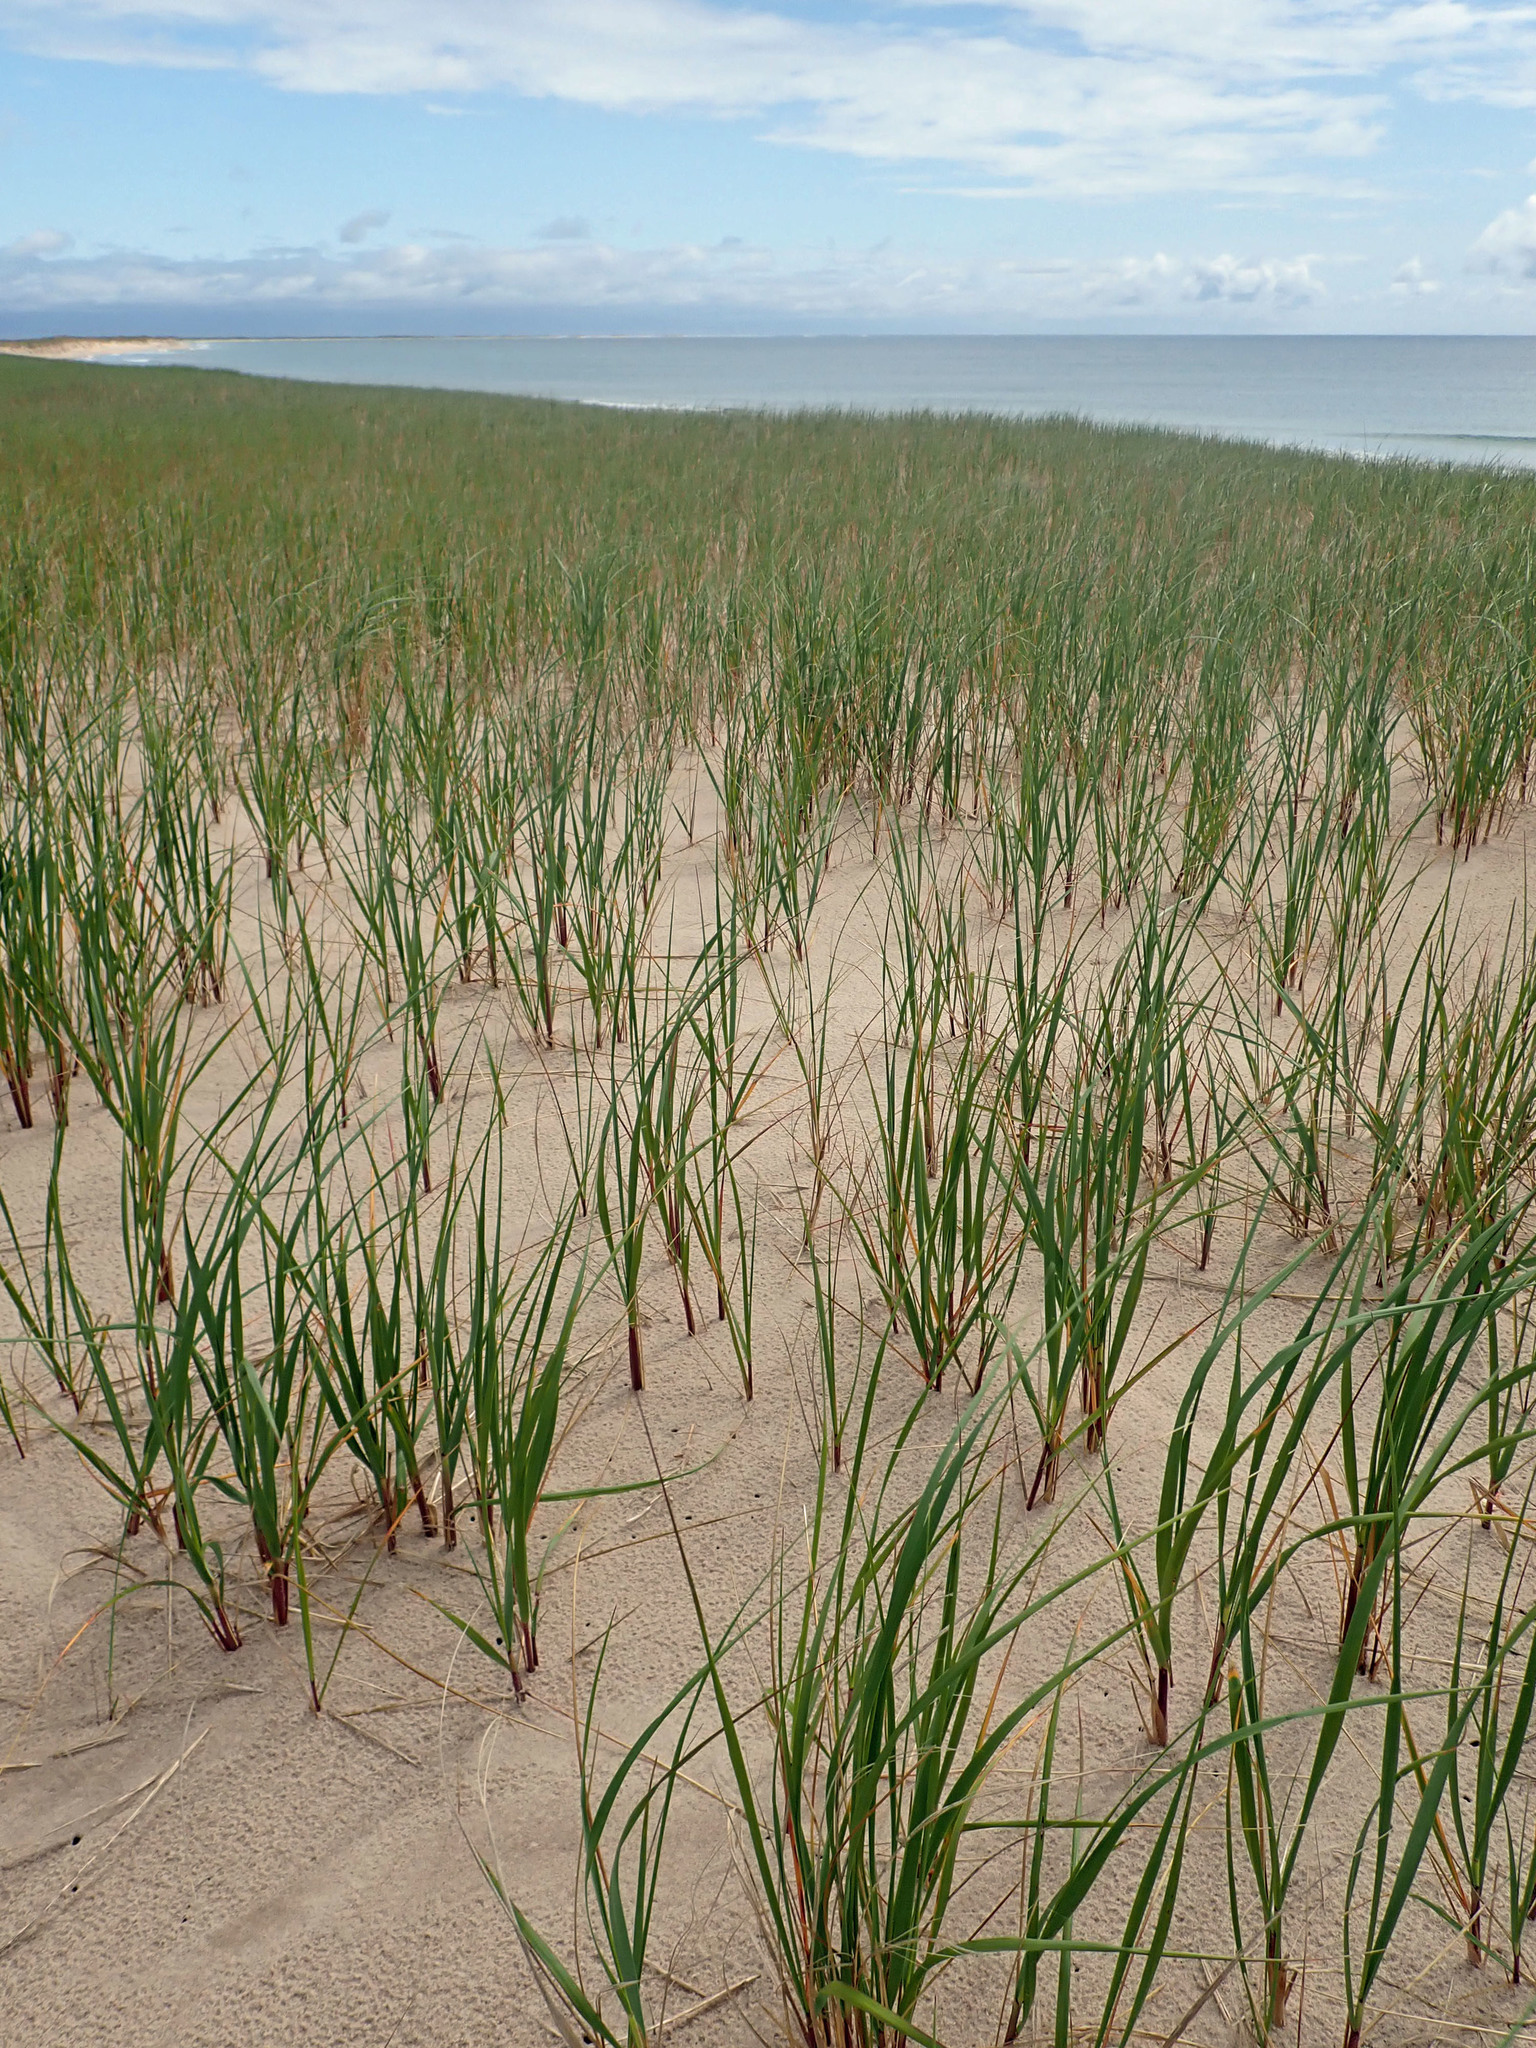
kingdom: Plantae
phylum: Tracheophyta
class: Liliopsida
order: Poales
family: Poaceae
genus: Calamagrostis
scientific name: Calamagrostis breviligulata
